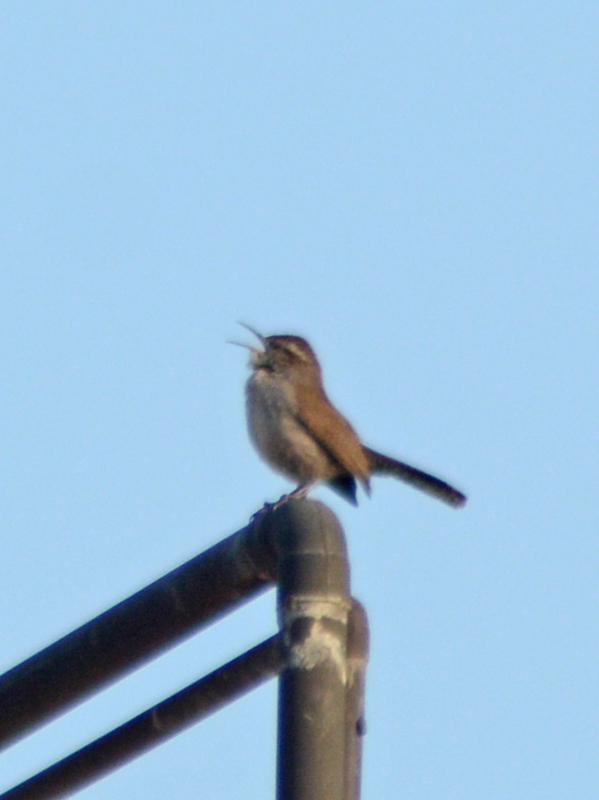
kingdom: Animalia
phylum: Chordata
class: Aves
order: Passeriformes
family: Troglodytidae
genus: Thryomanes
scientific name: Thryomanes bewickii
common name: Bewick's wren
